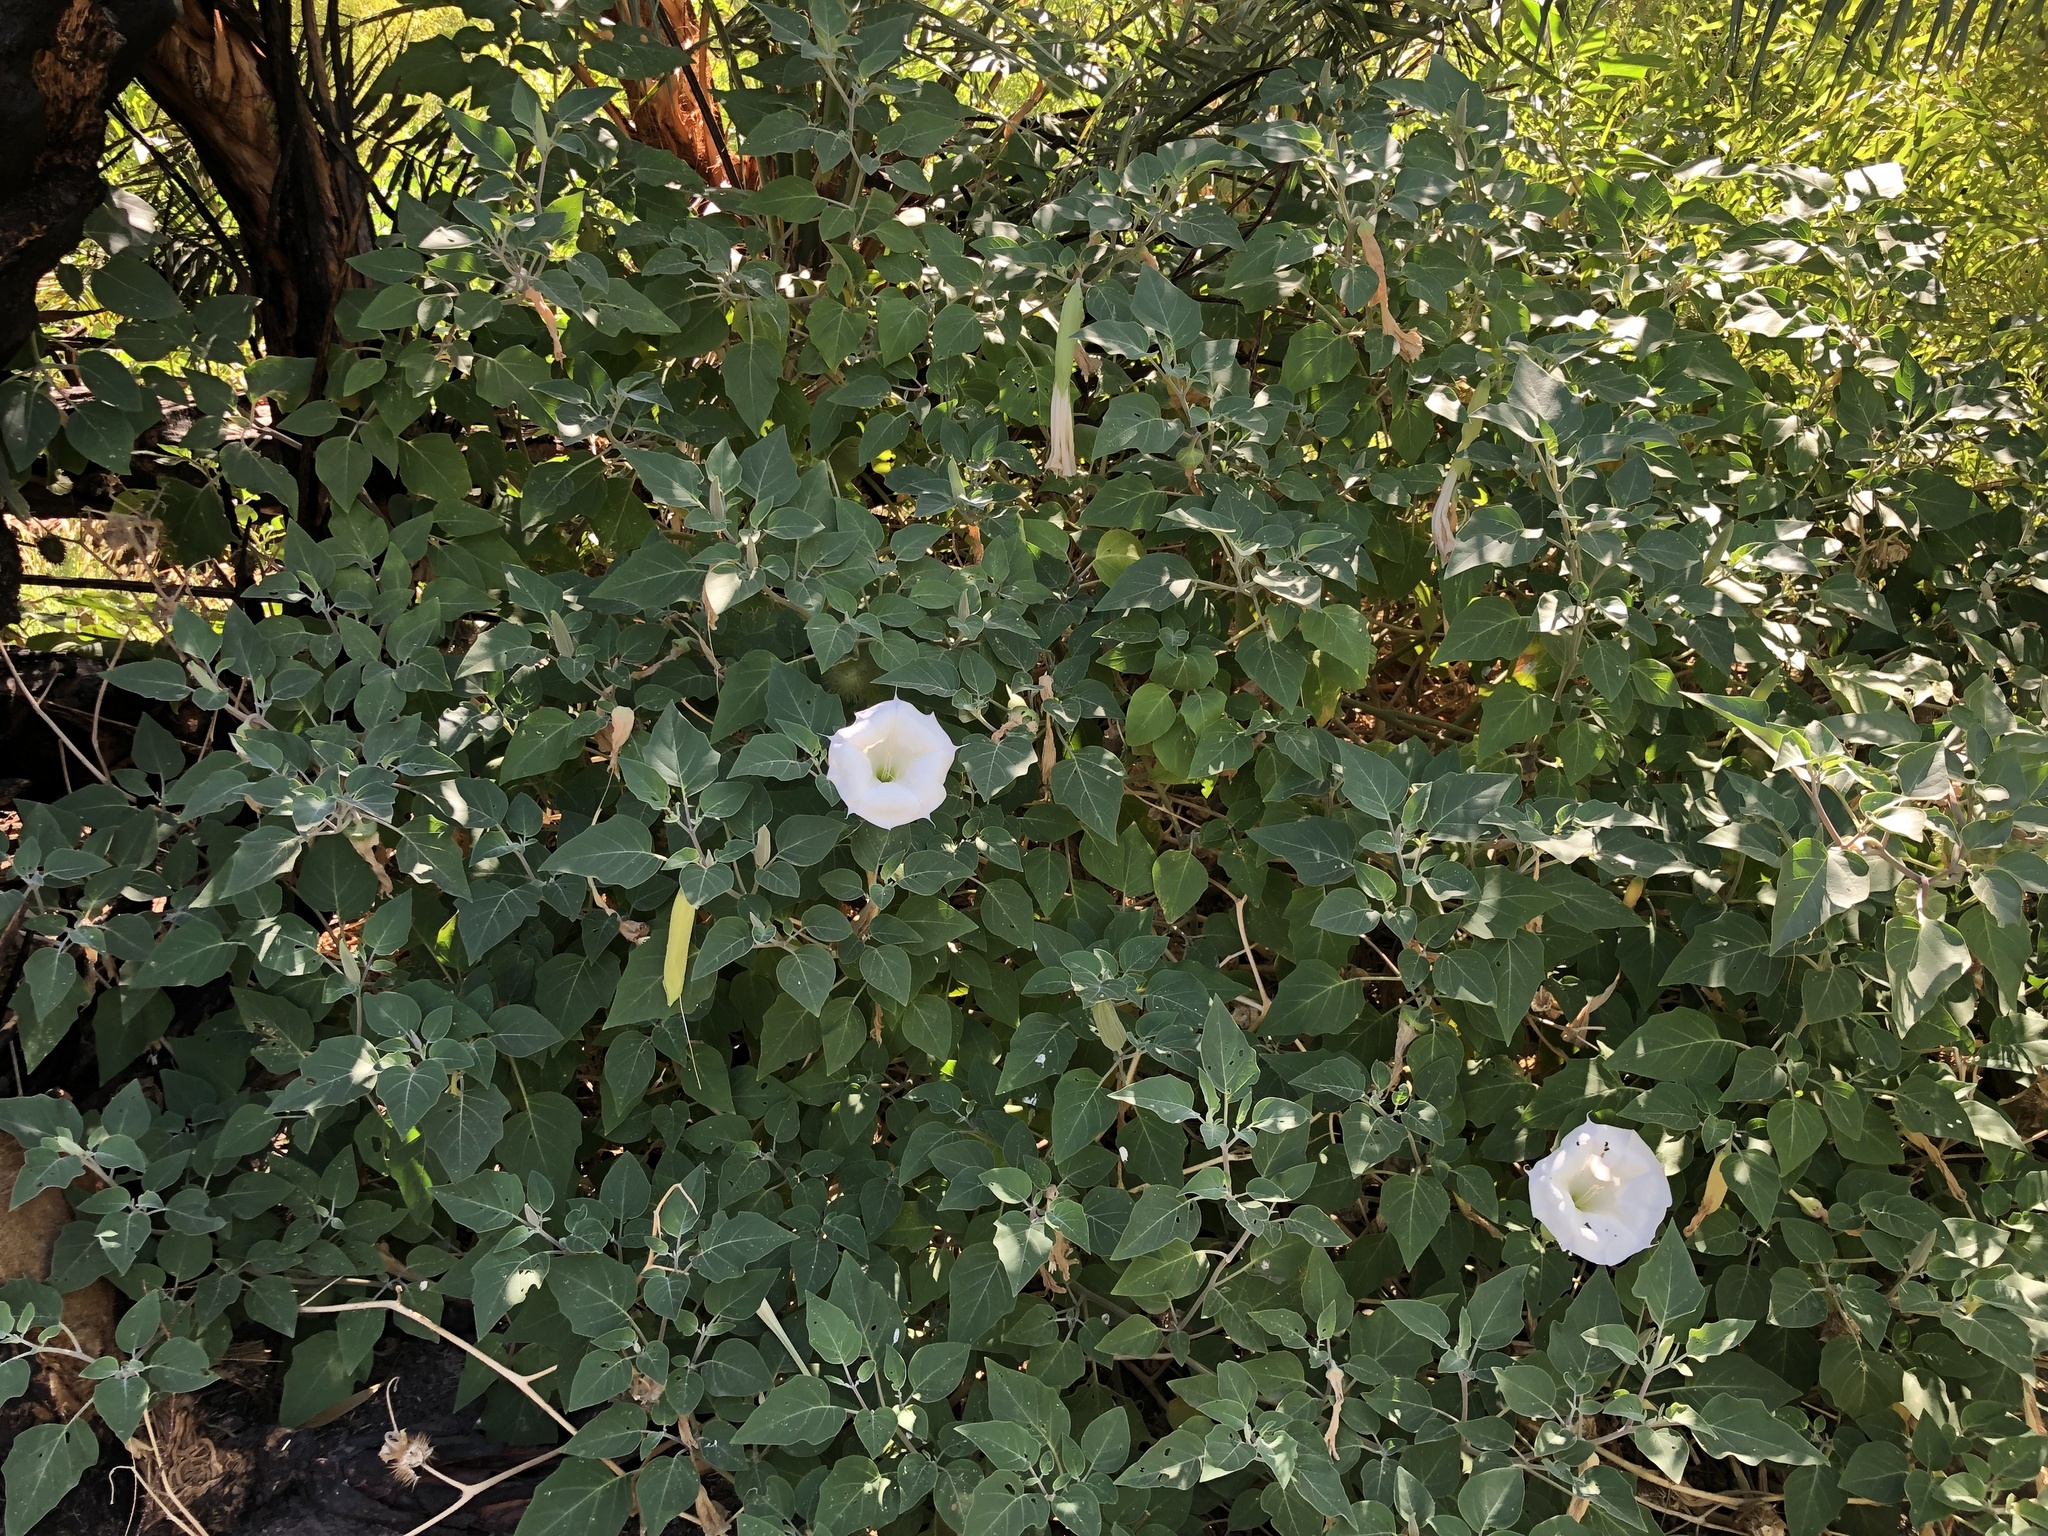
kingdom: Plantae
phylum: Tracheophyta
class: Magnoliopsida
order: Solanales
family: Solanaceae
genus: Datura
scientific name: Datura wrightii
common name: Sacred thorn-apple
